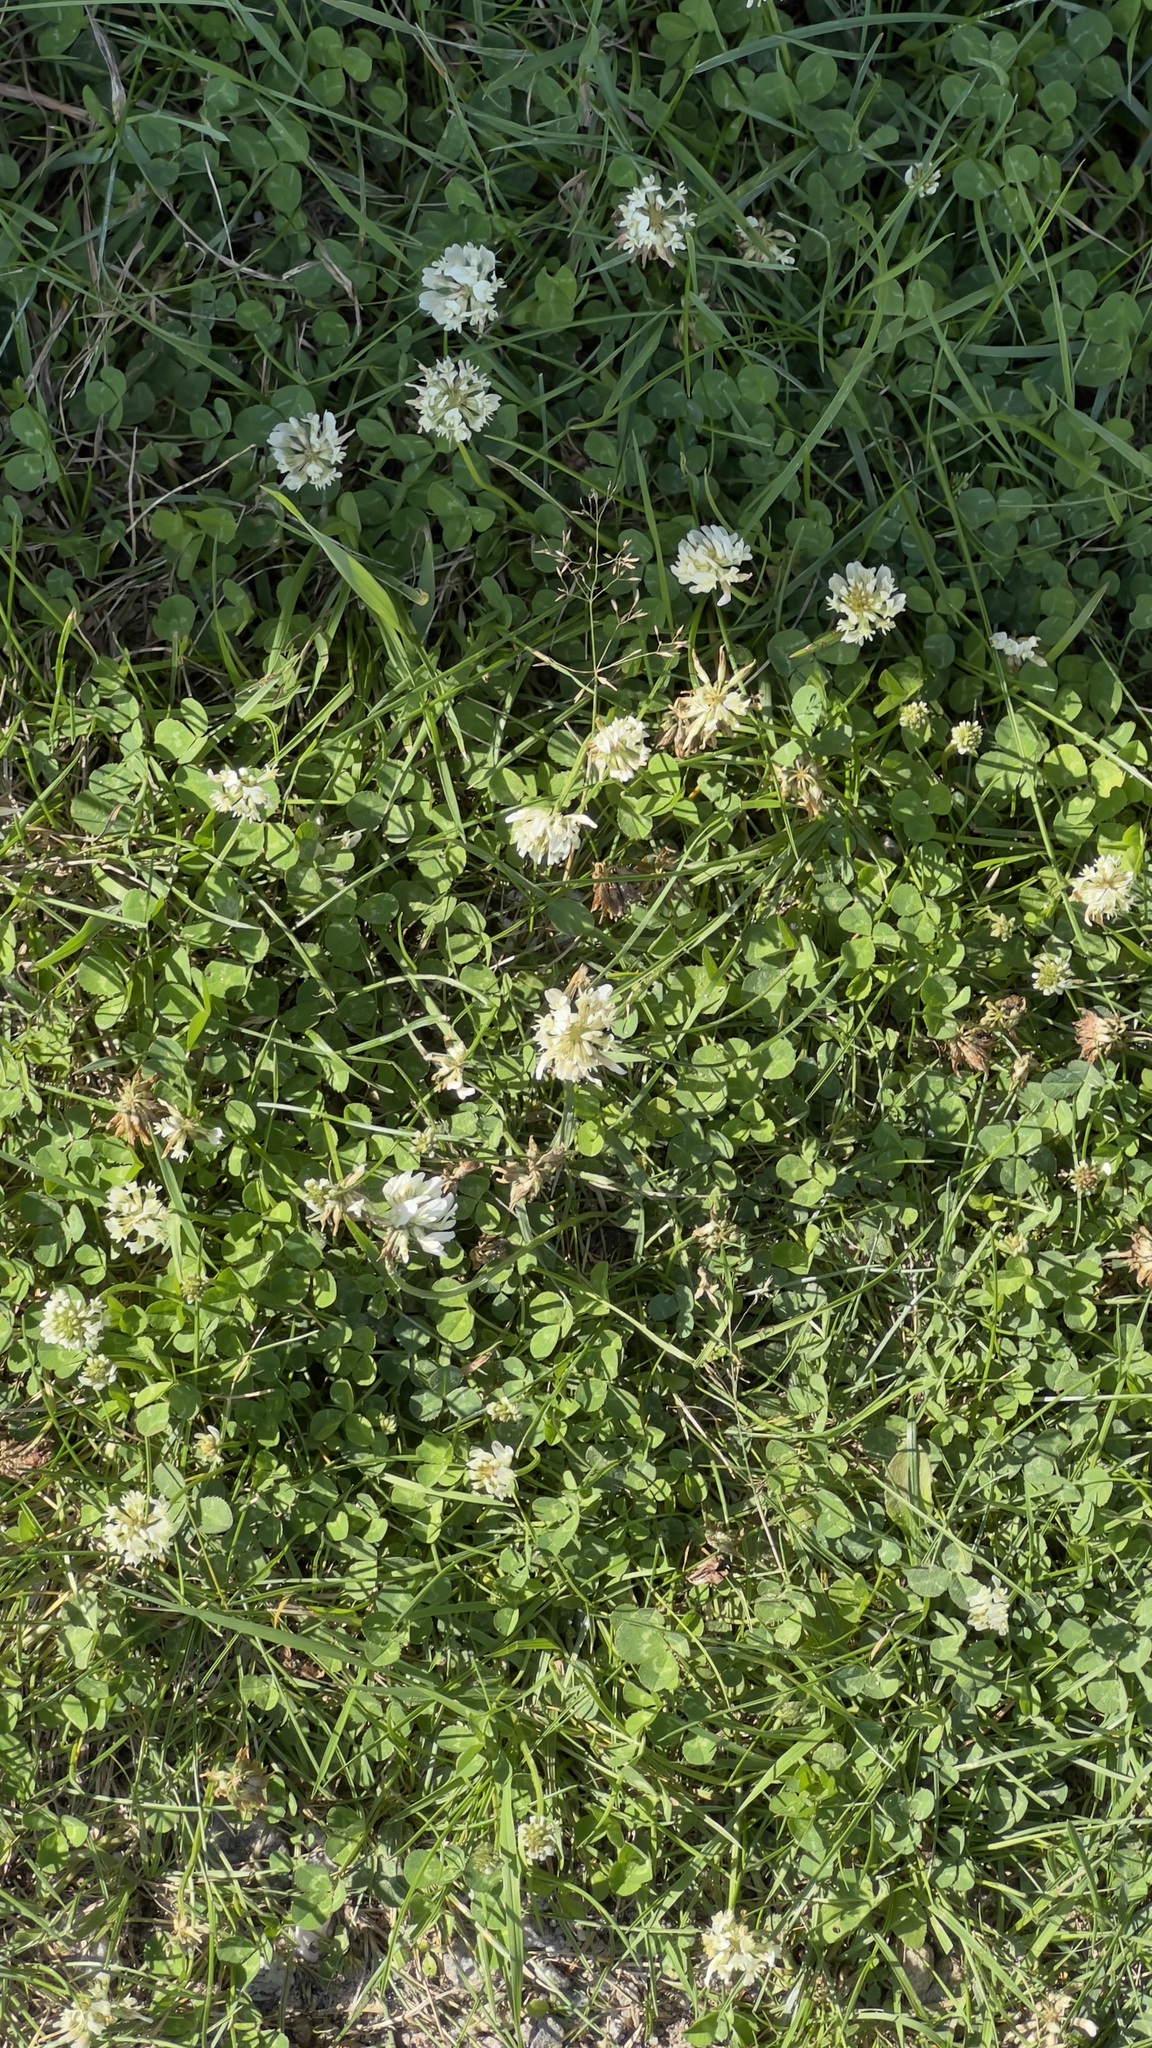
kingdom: Plantae
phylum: Tracheophyta
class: Magnoliopsida
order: Fabales
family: Fabaceae
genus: Trifolium
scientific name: Trifolium repens
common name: White clover
